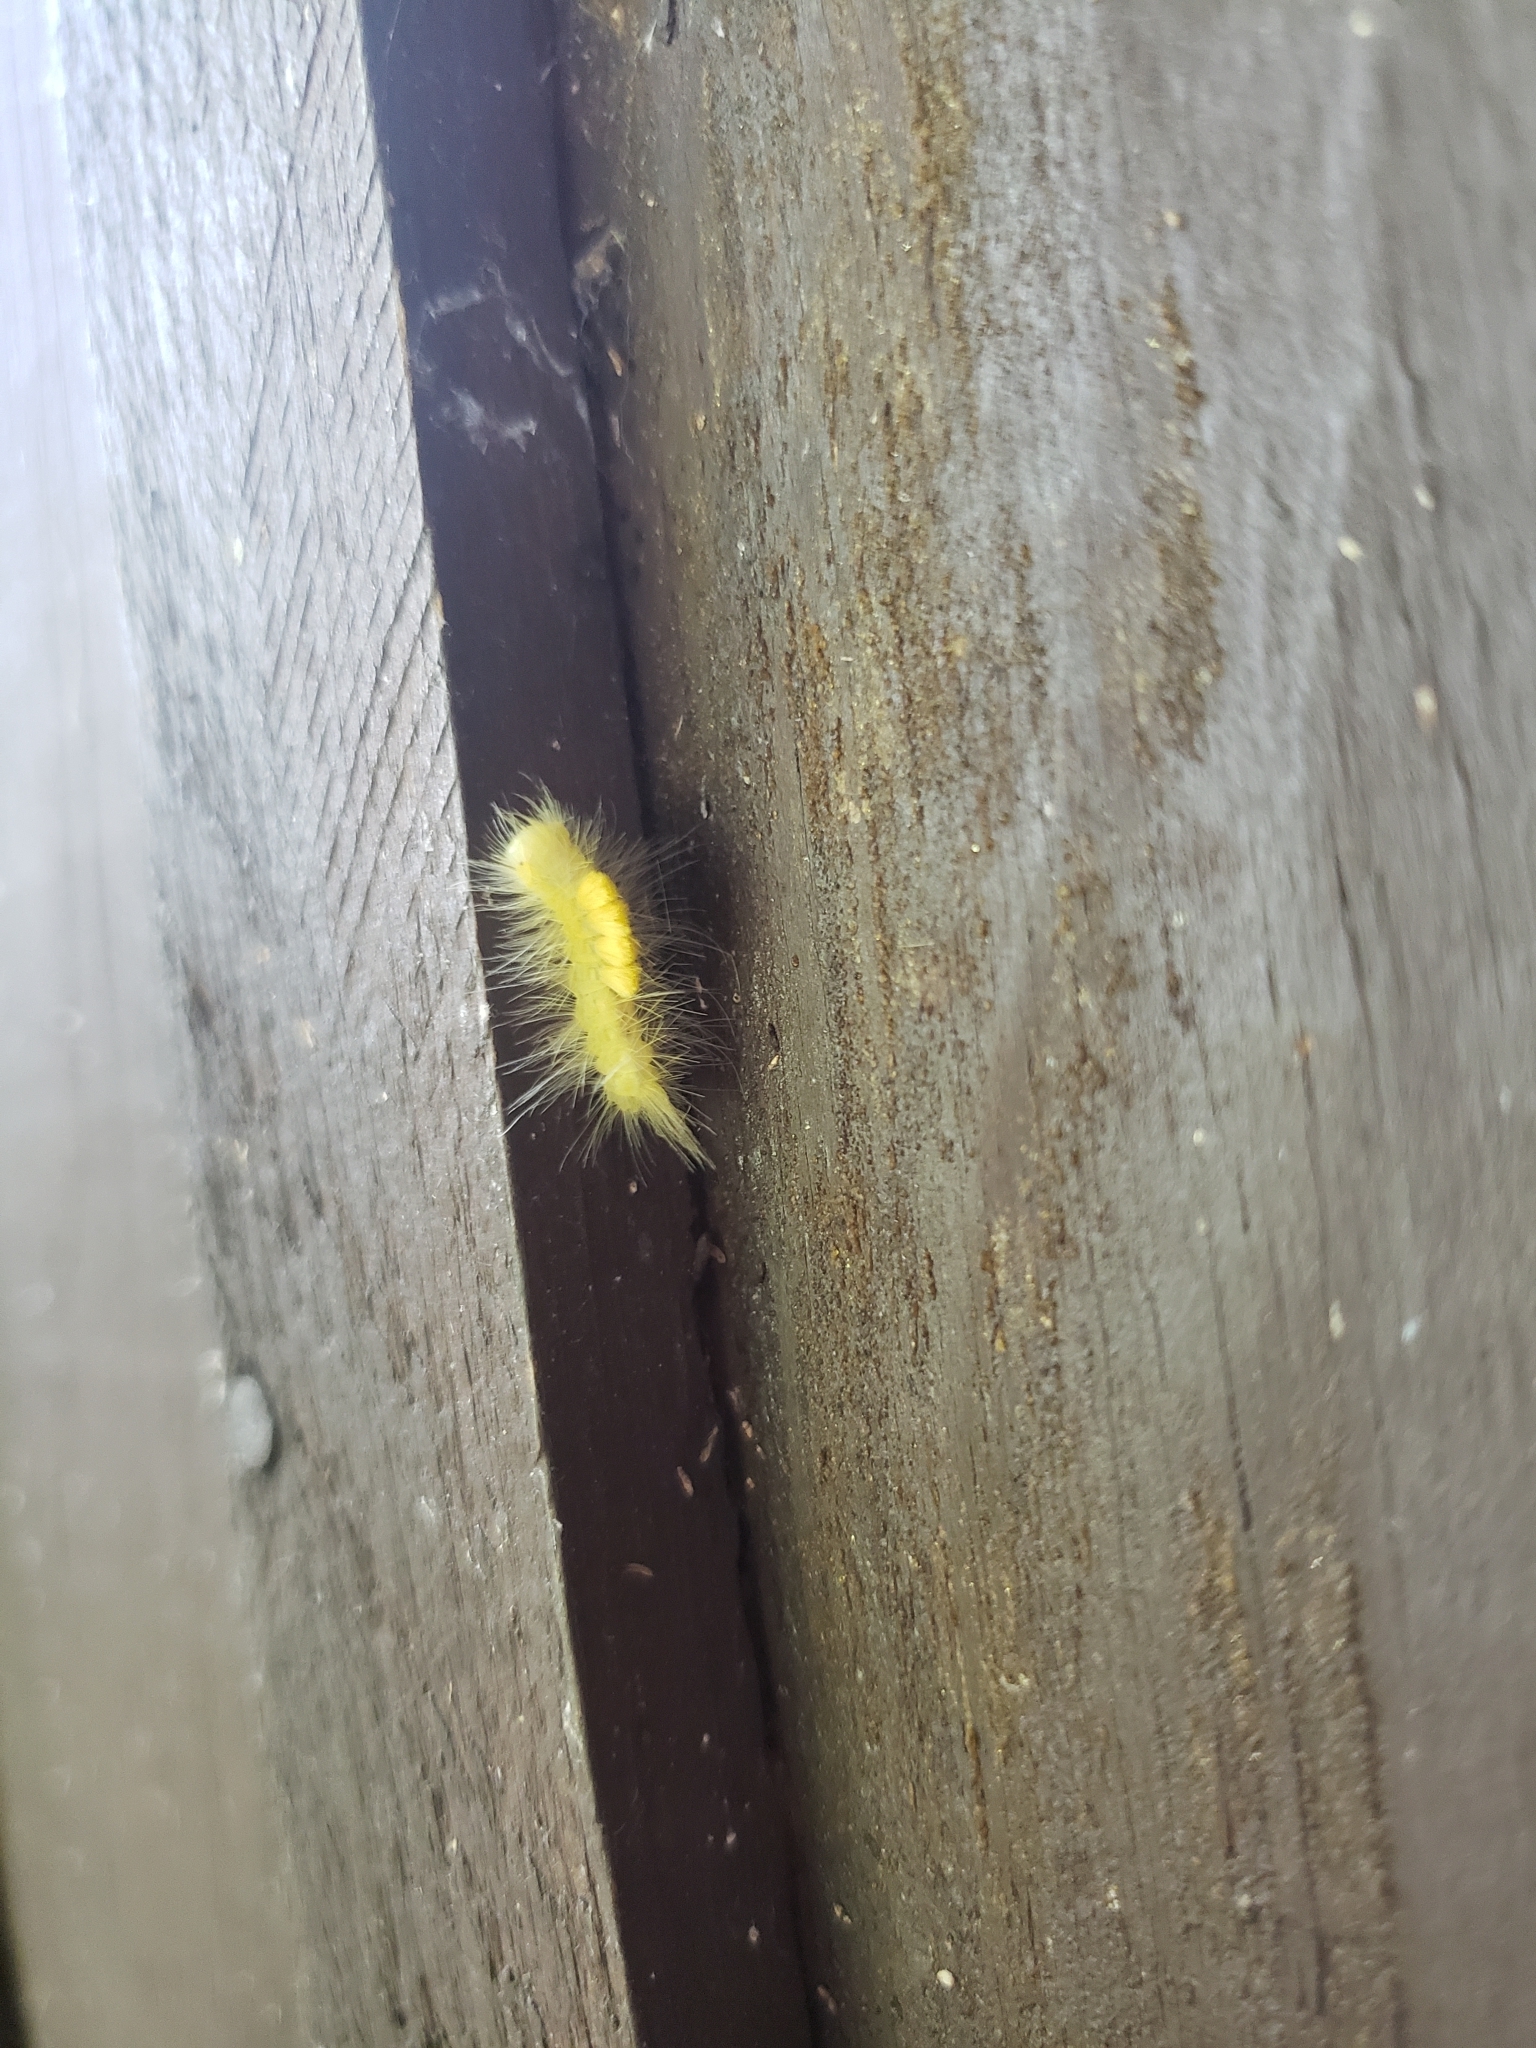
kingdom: Animalia
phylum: Arthropoda
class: Insecta
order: Lepidoptera
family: Erebidae
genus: Orgyia
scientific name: Orgyia definita
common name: Definite tussock moth
